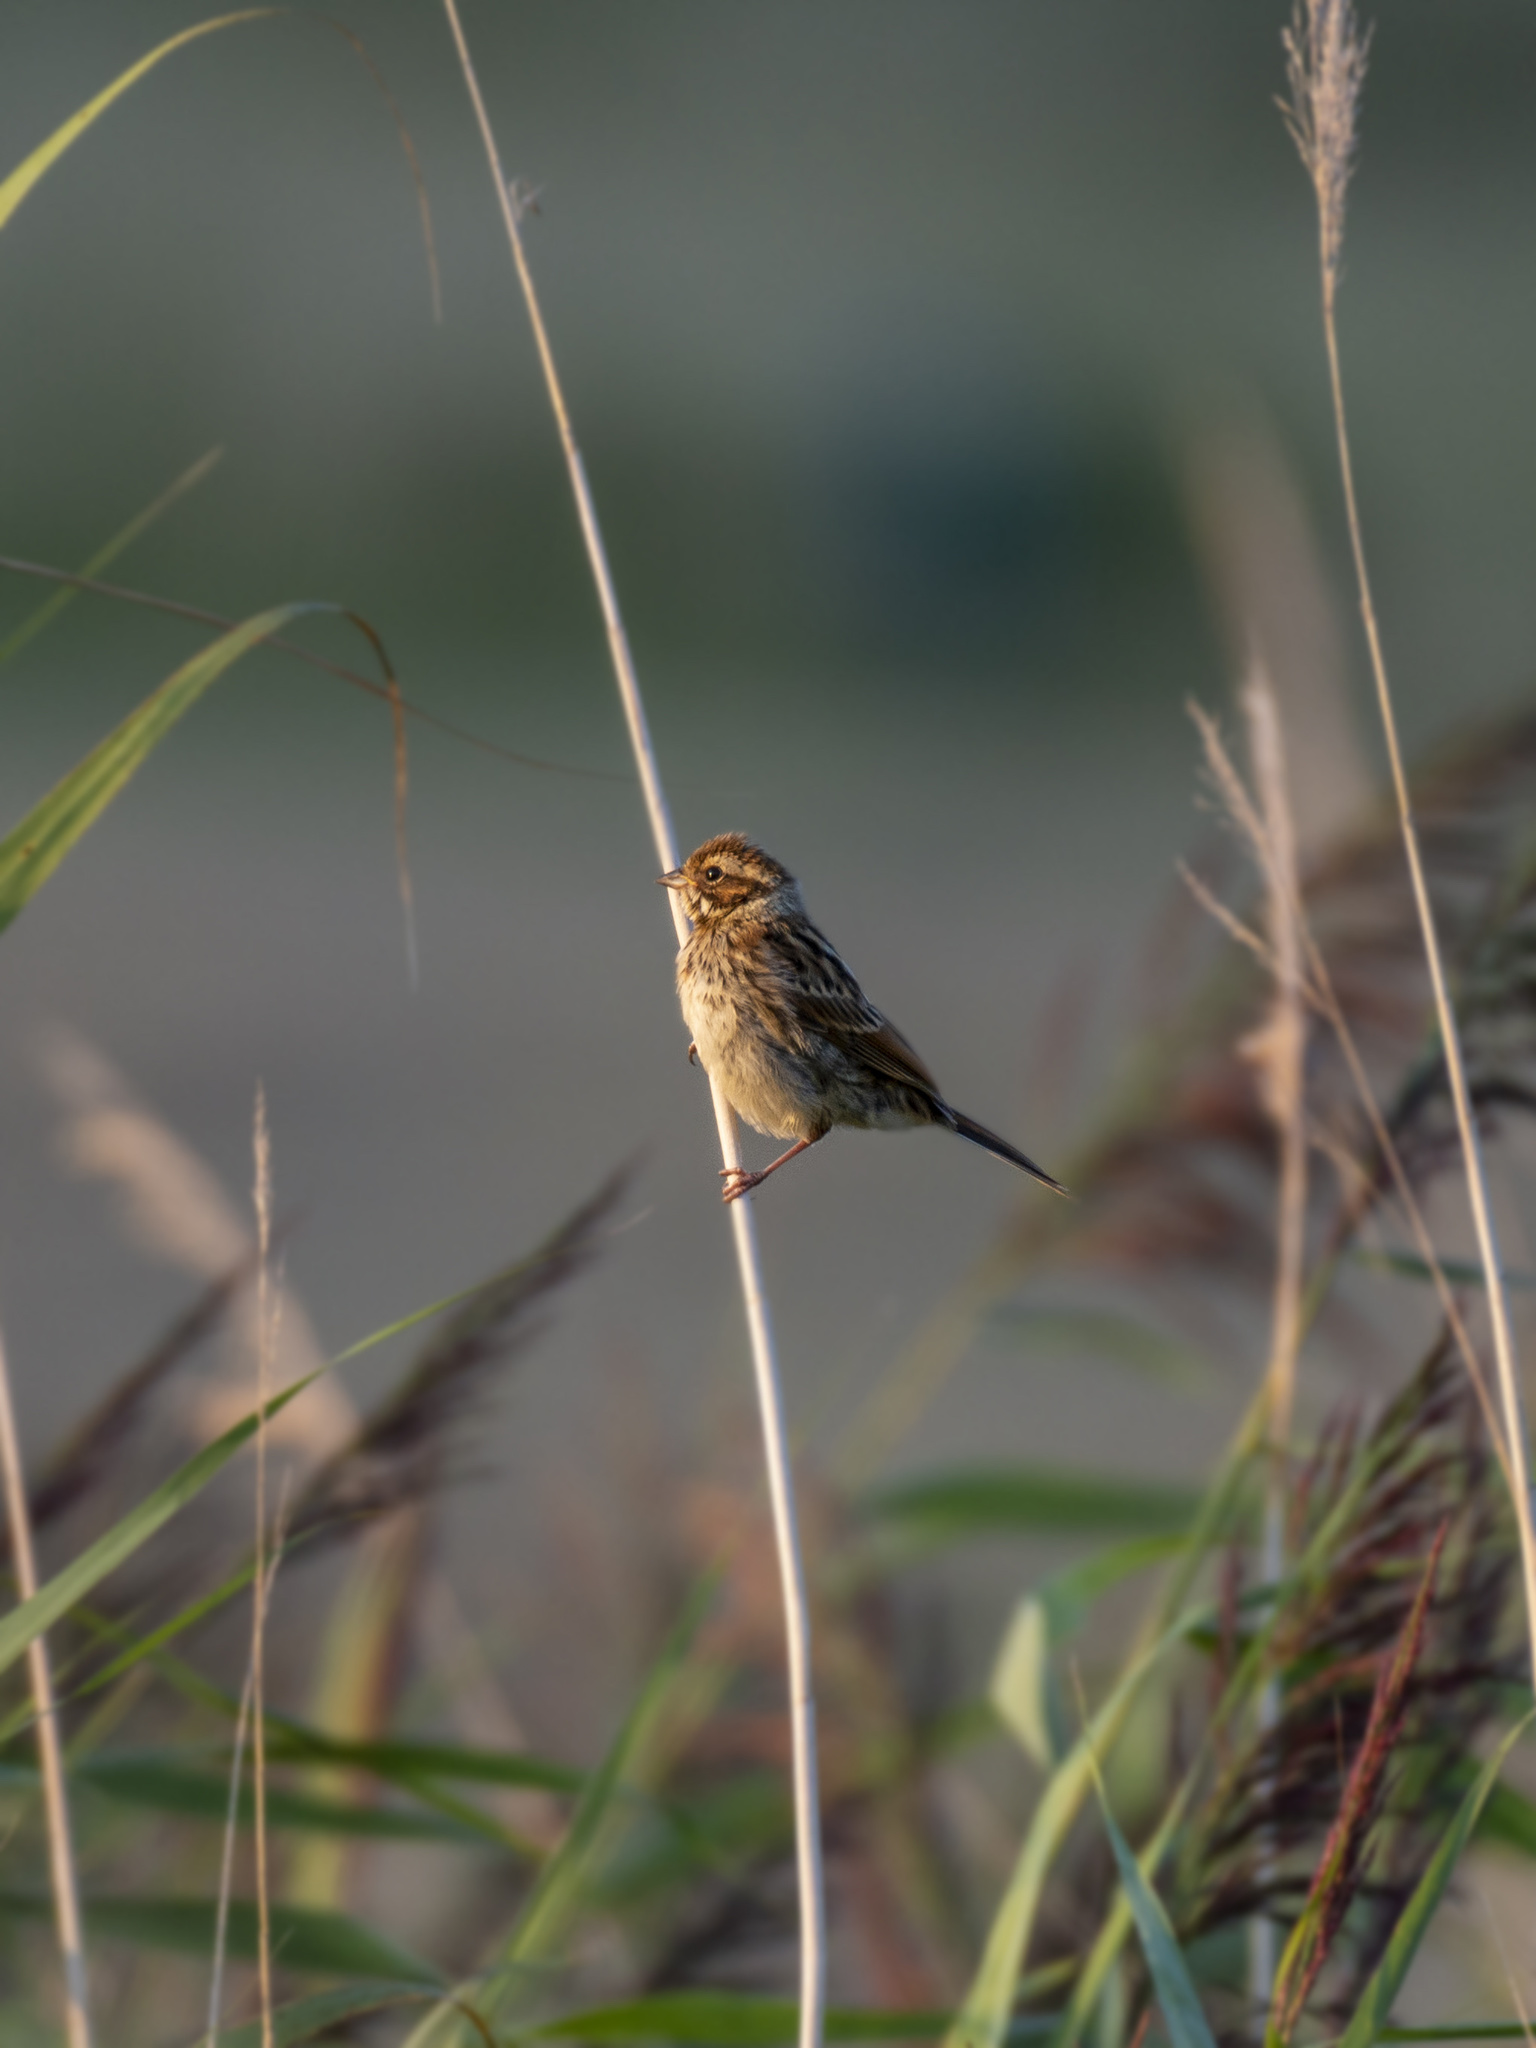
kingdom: Animalia
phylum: Chordata
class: Aves
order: Passeriformes
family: Emberizidae
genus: Emberiza
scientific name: Emberiza pusilla
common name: Little bunting
